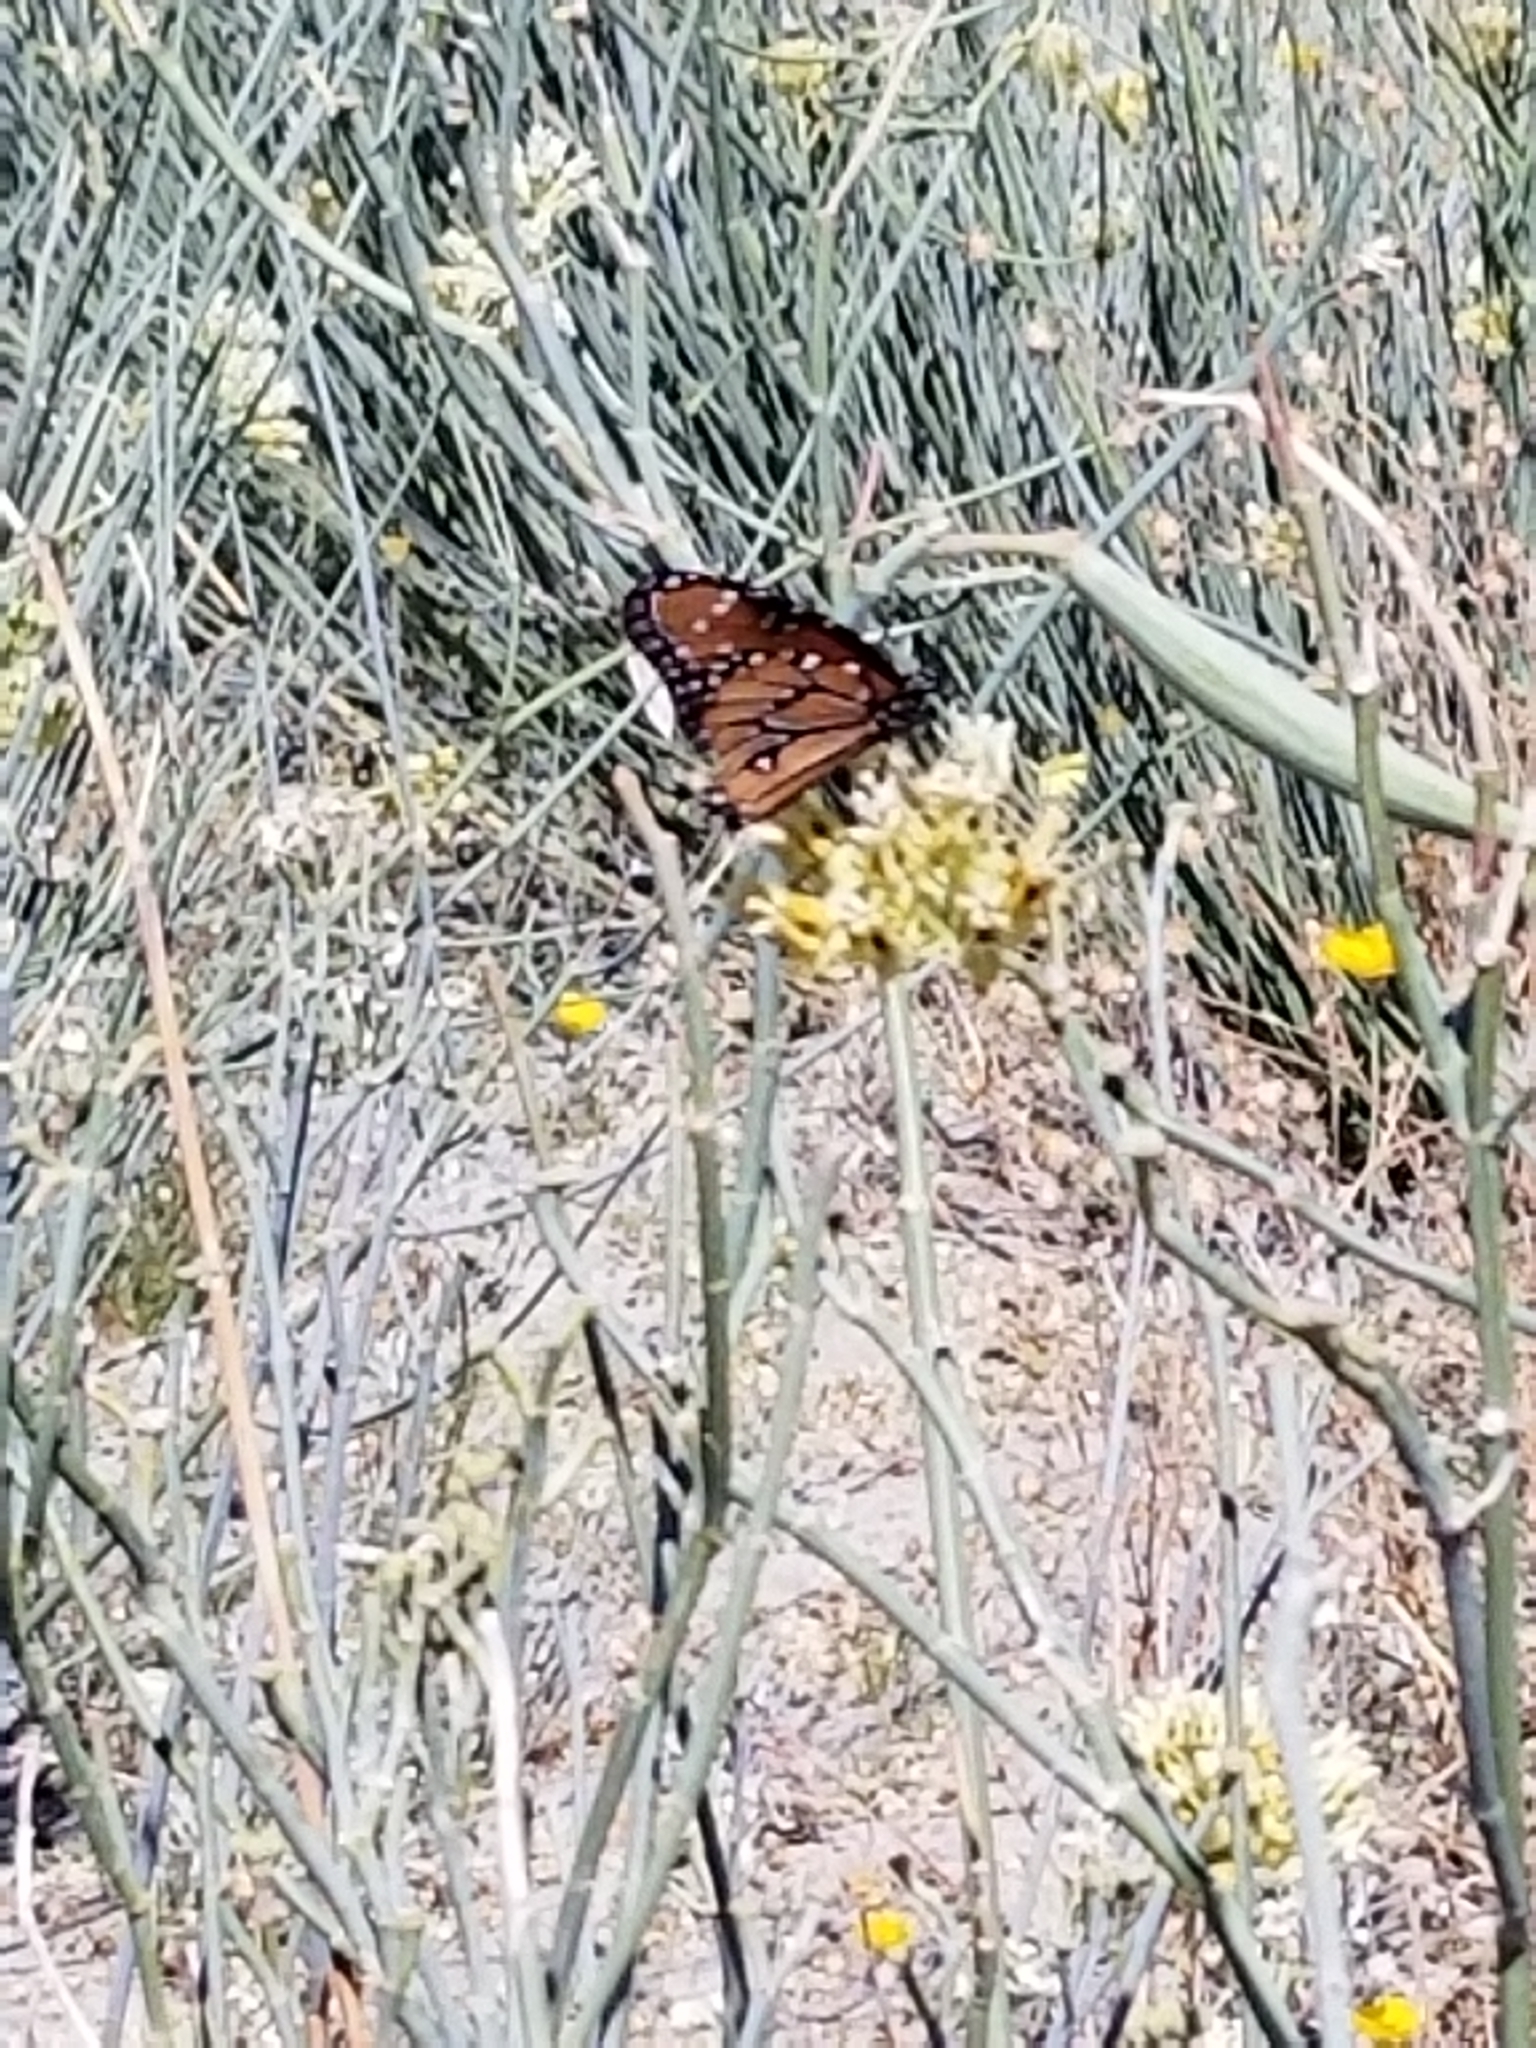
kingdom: Animalia
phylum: Arthropoda
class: Insecta
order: Lepidoptera
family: Nymphalidae
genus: Danaus
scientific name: Danaus gilippus
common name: Queen
